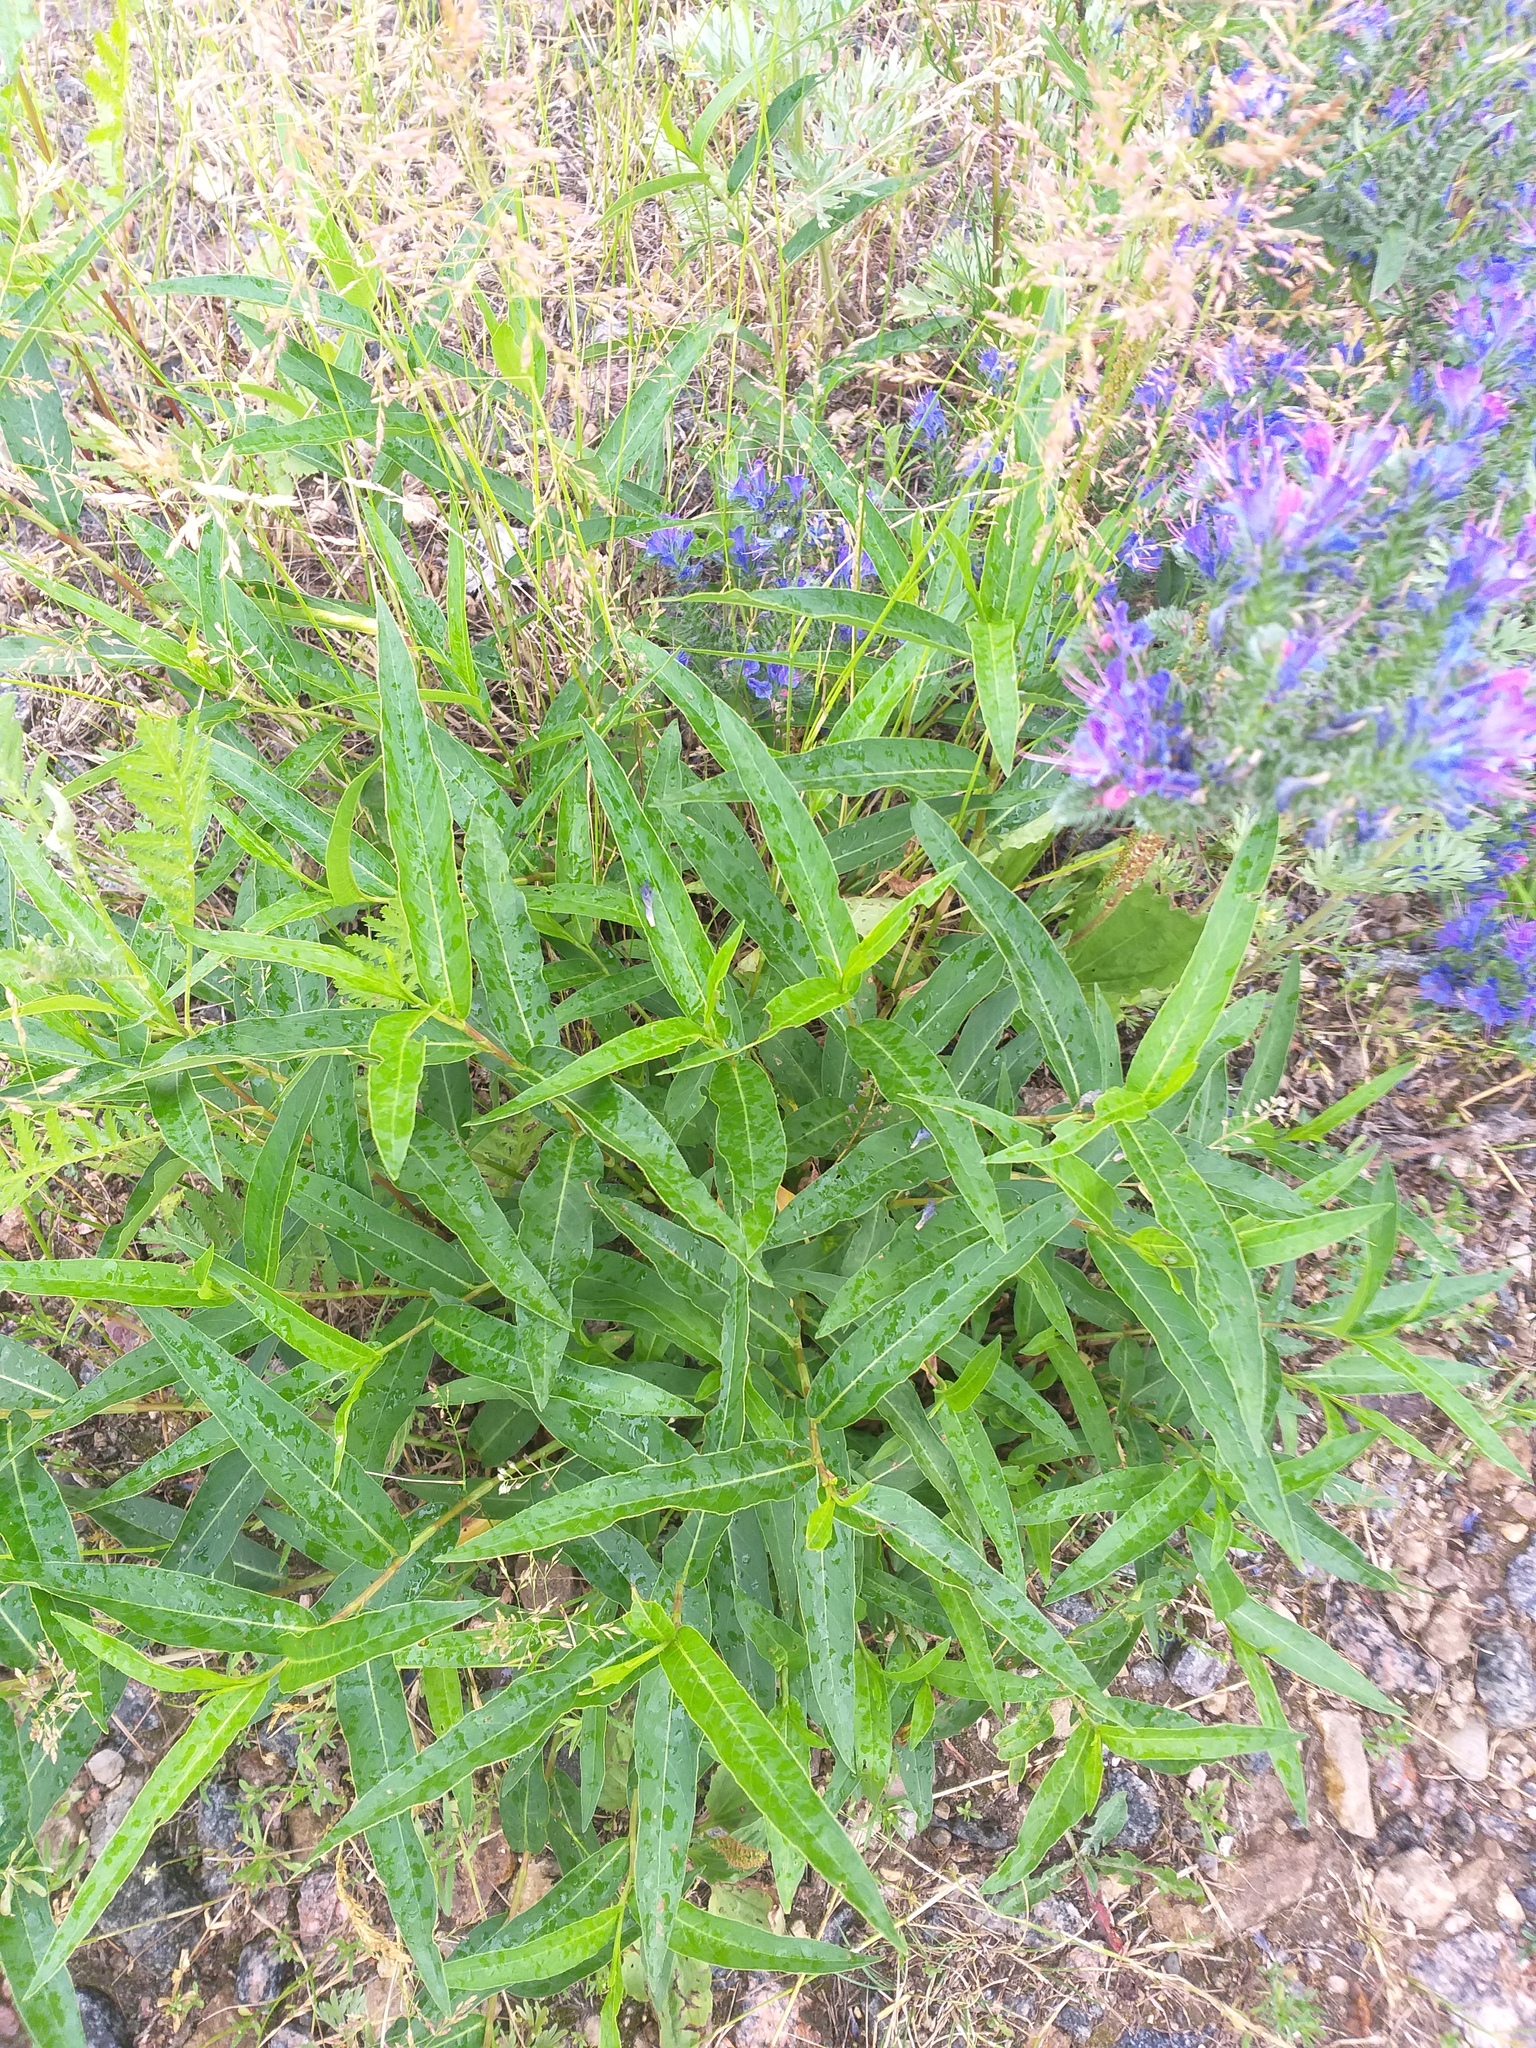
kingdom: Plantae
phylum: Tracheophyta
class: Magnoliopsida
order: Caryophyllales
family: Polygonaceae
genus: Persicaria
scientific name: Persicaria amphibia
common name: Amphibious bistort
